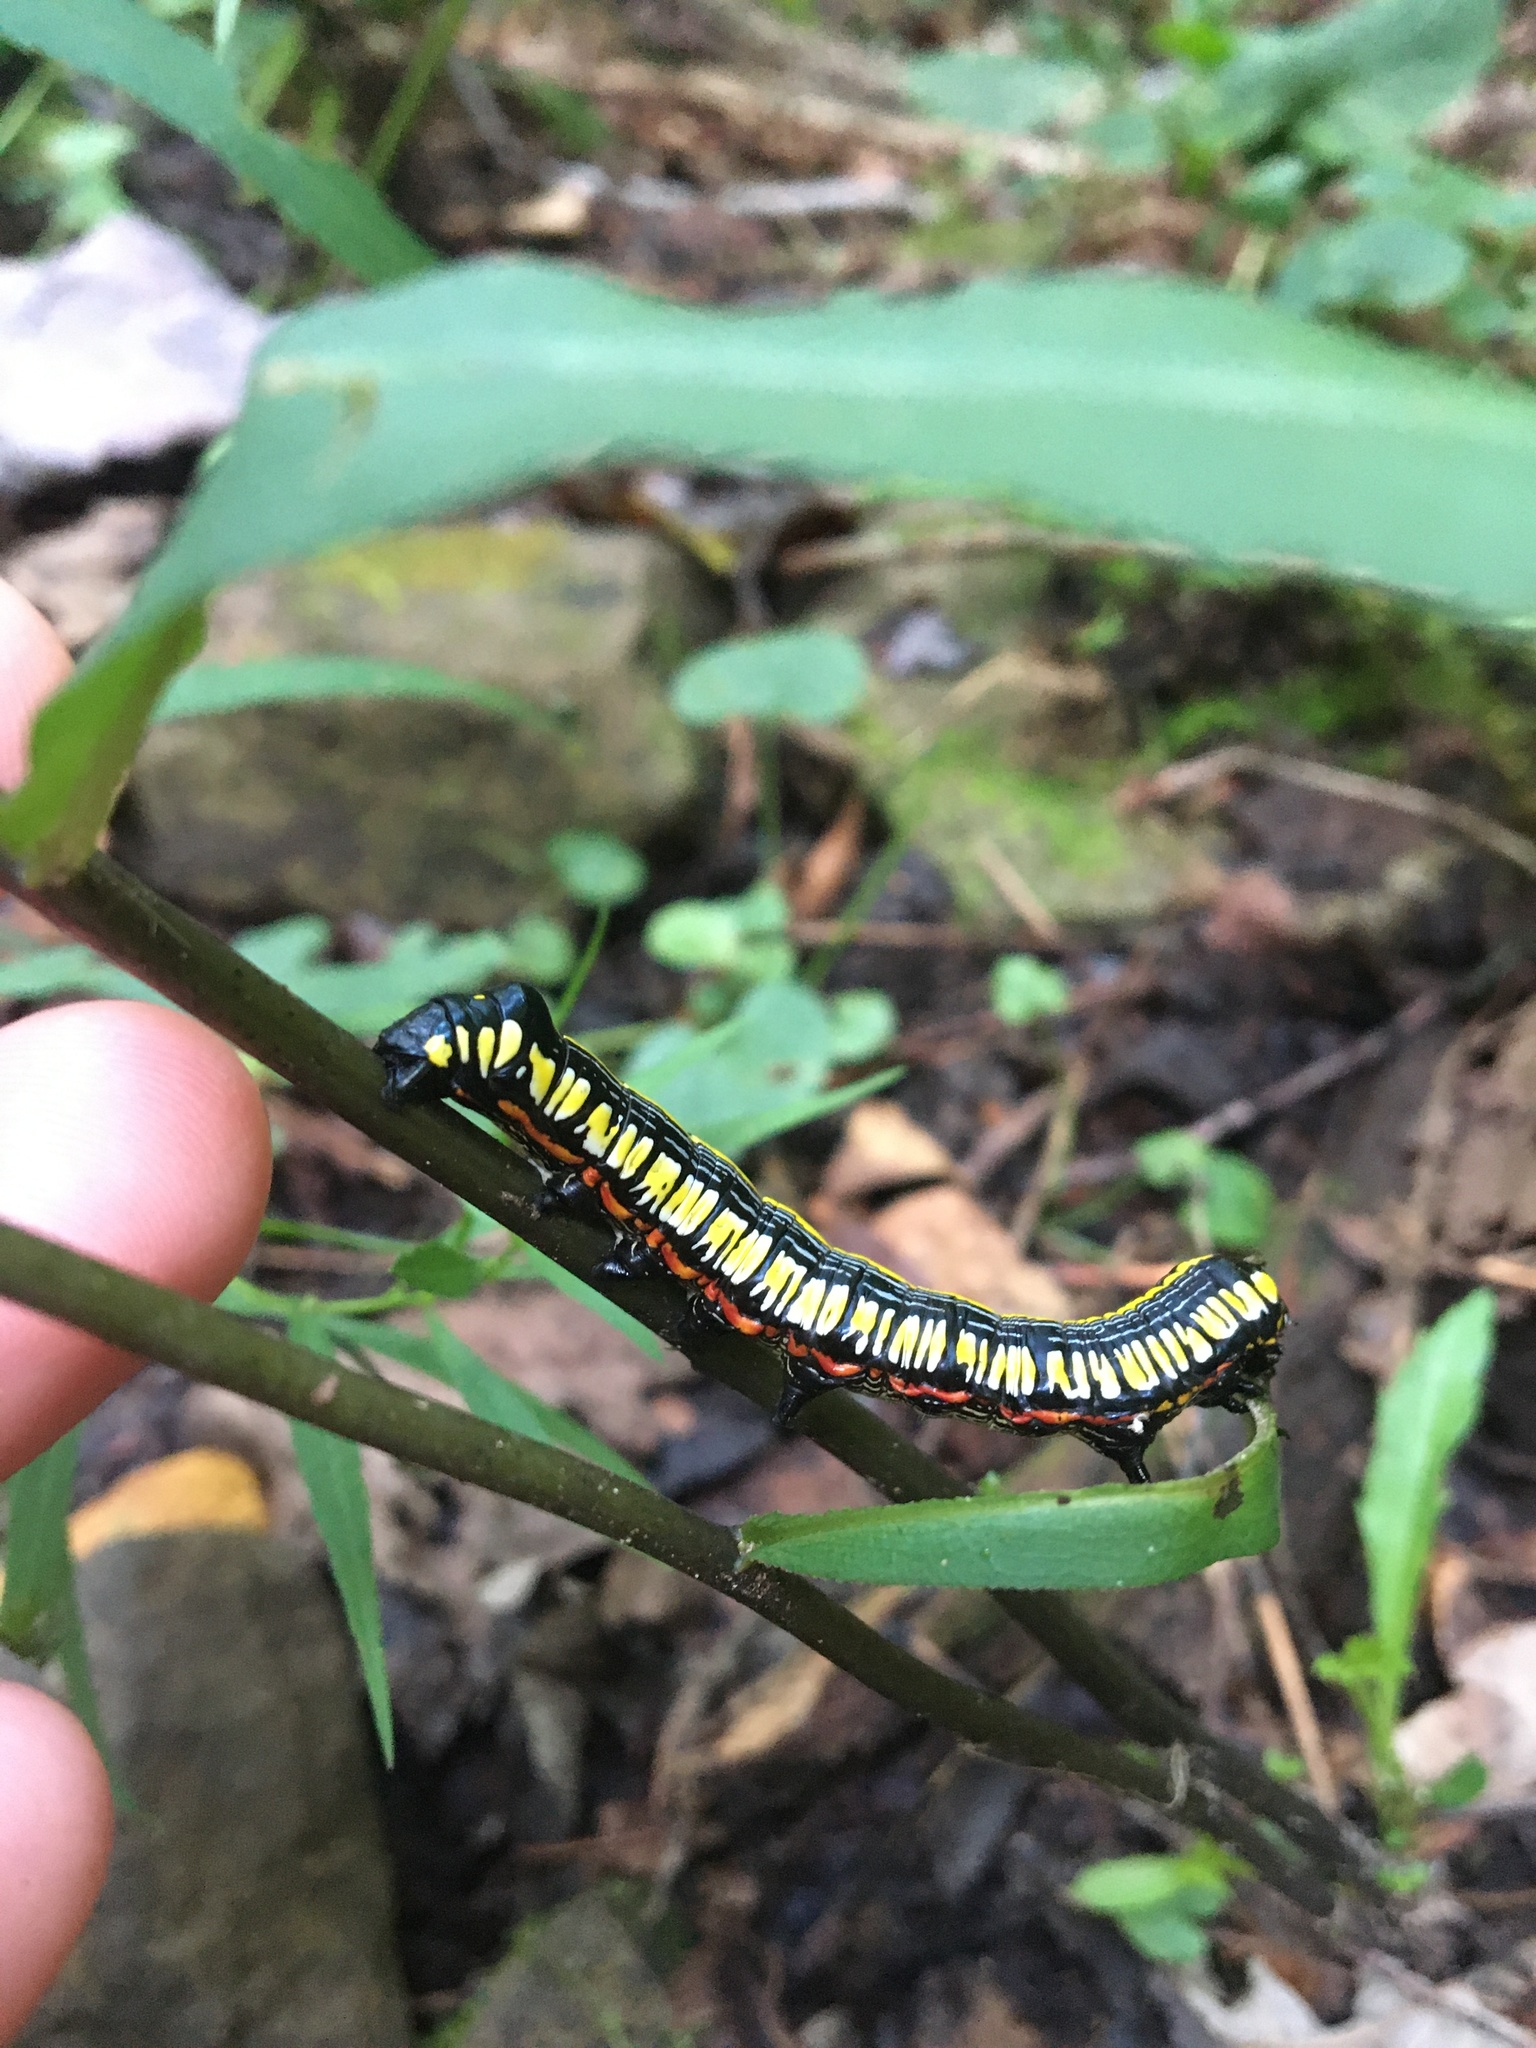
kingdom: Animalia
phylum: Arthropoda
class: Insecta
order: Lepidoptera
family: Noctuidae
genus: Cucullia
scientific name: Cucullia convexipennis
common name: Brown-hooded owlet
